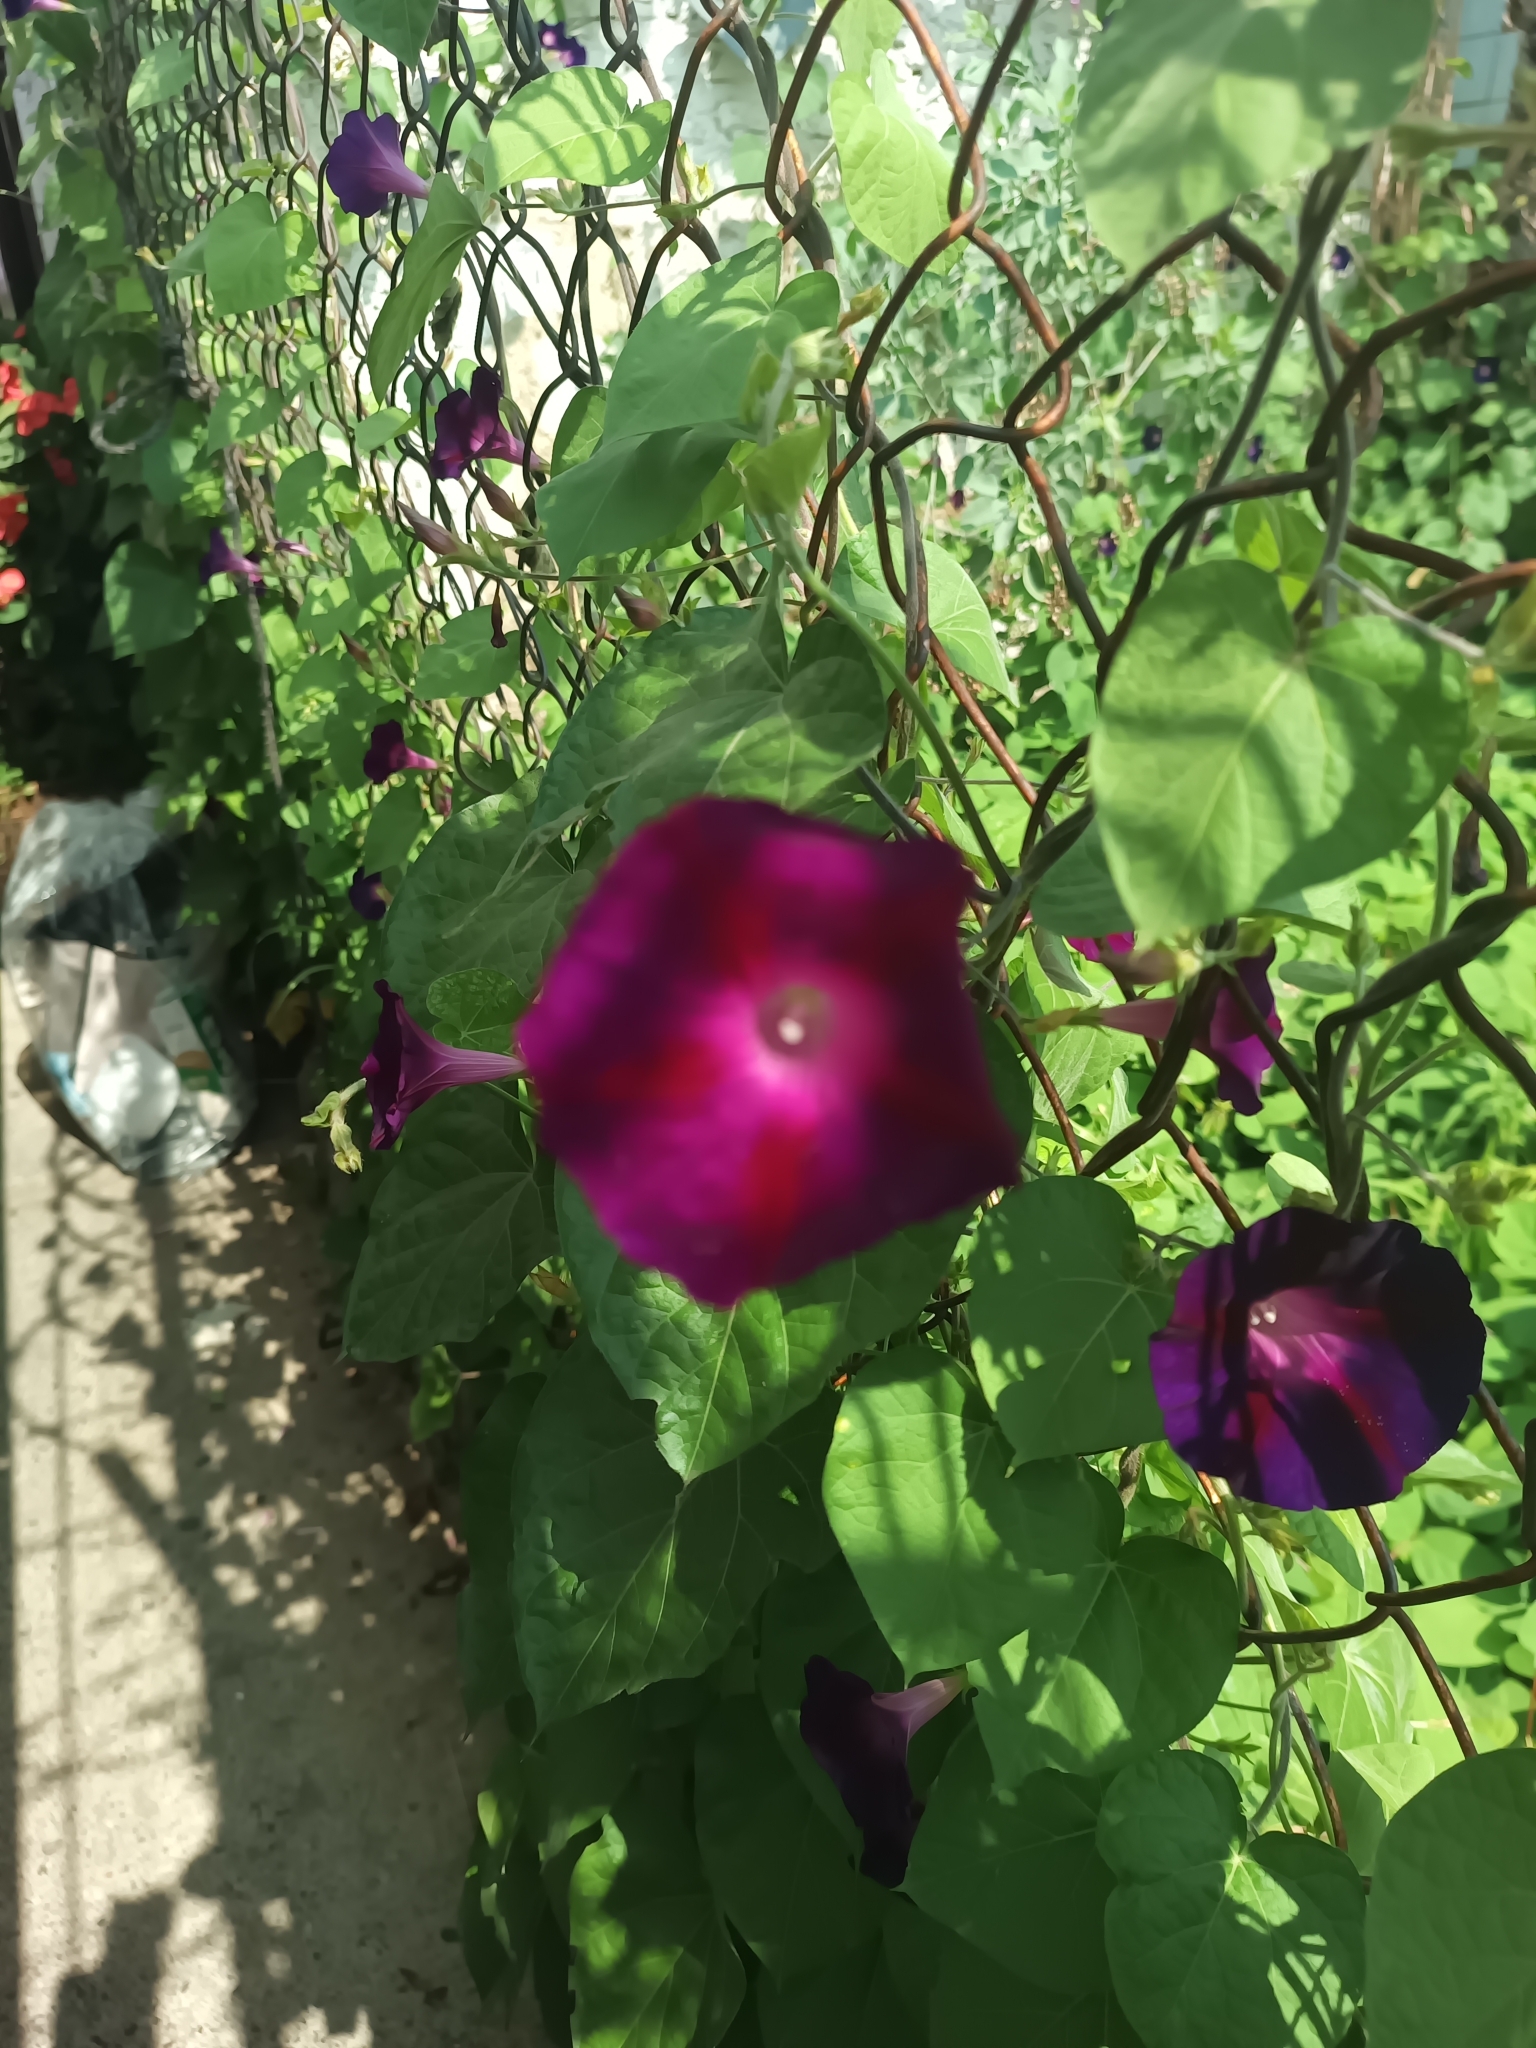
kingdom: Plantae
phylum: Tracheophyta
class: Magnoliopsida
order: Solanales
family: Convolvulaceae
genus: Ipomoea
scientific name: Ipomoea purpurea
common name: Common morning-glory
